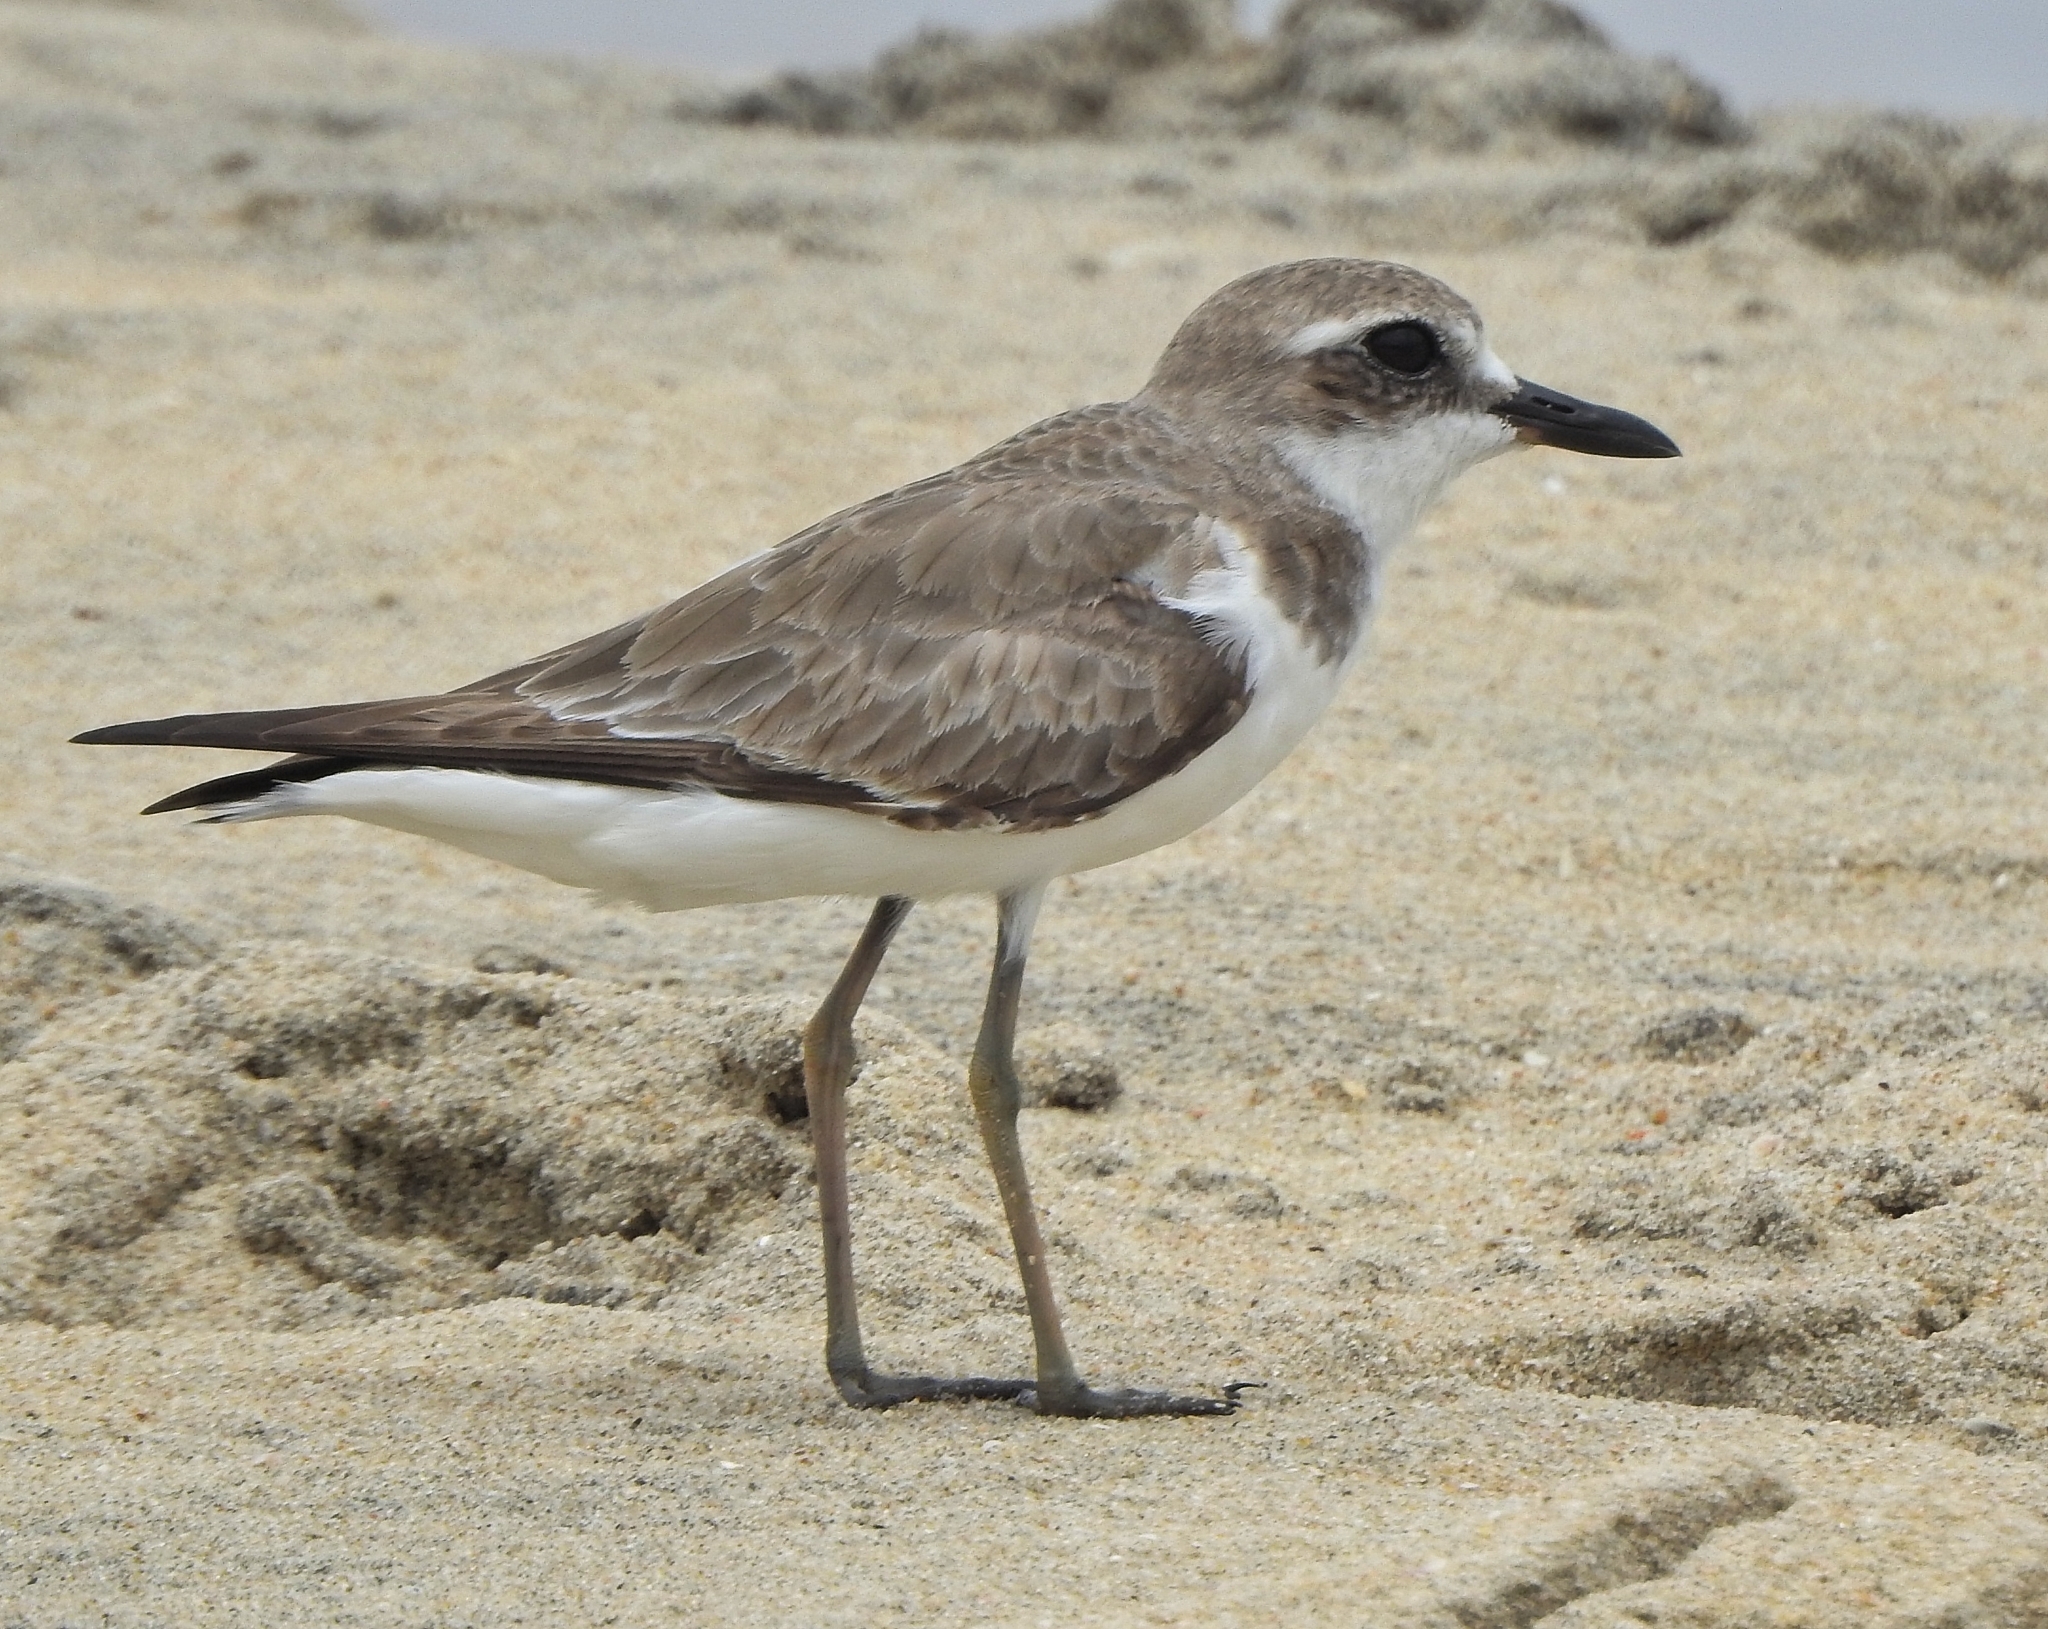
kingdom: Animalia
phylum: Chordata
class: Aves
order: Charadriiformes
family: Charadriidae
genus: Charadrius
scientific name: Charadrius leschenaultii
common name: Greater sand plover
